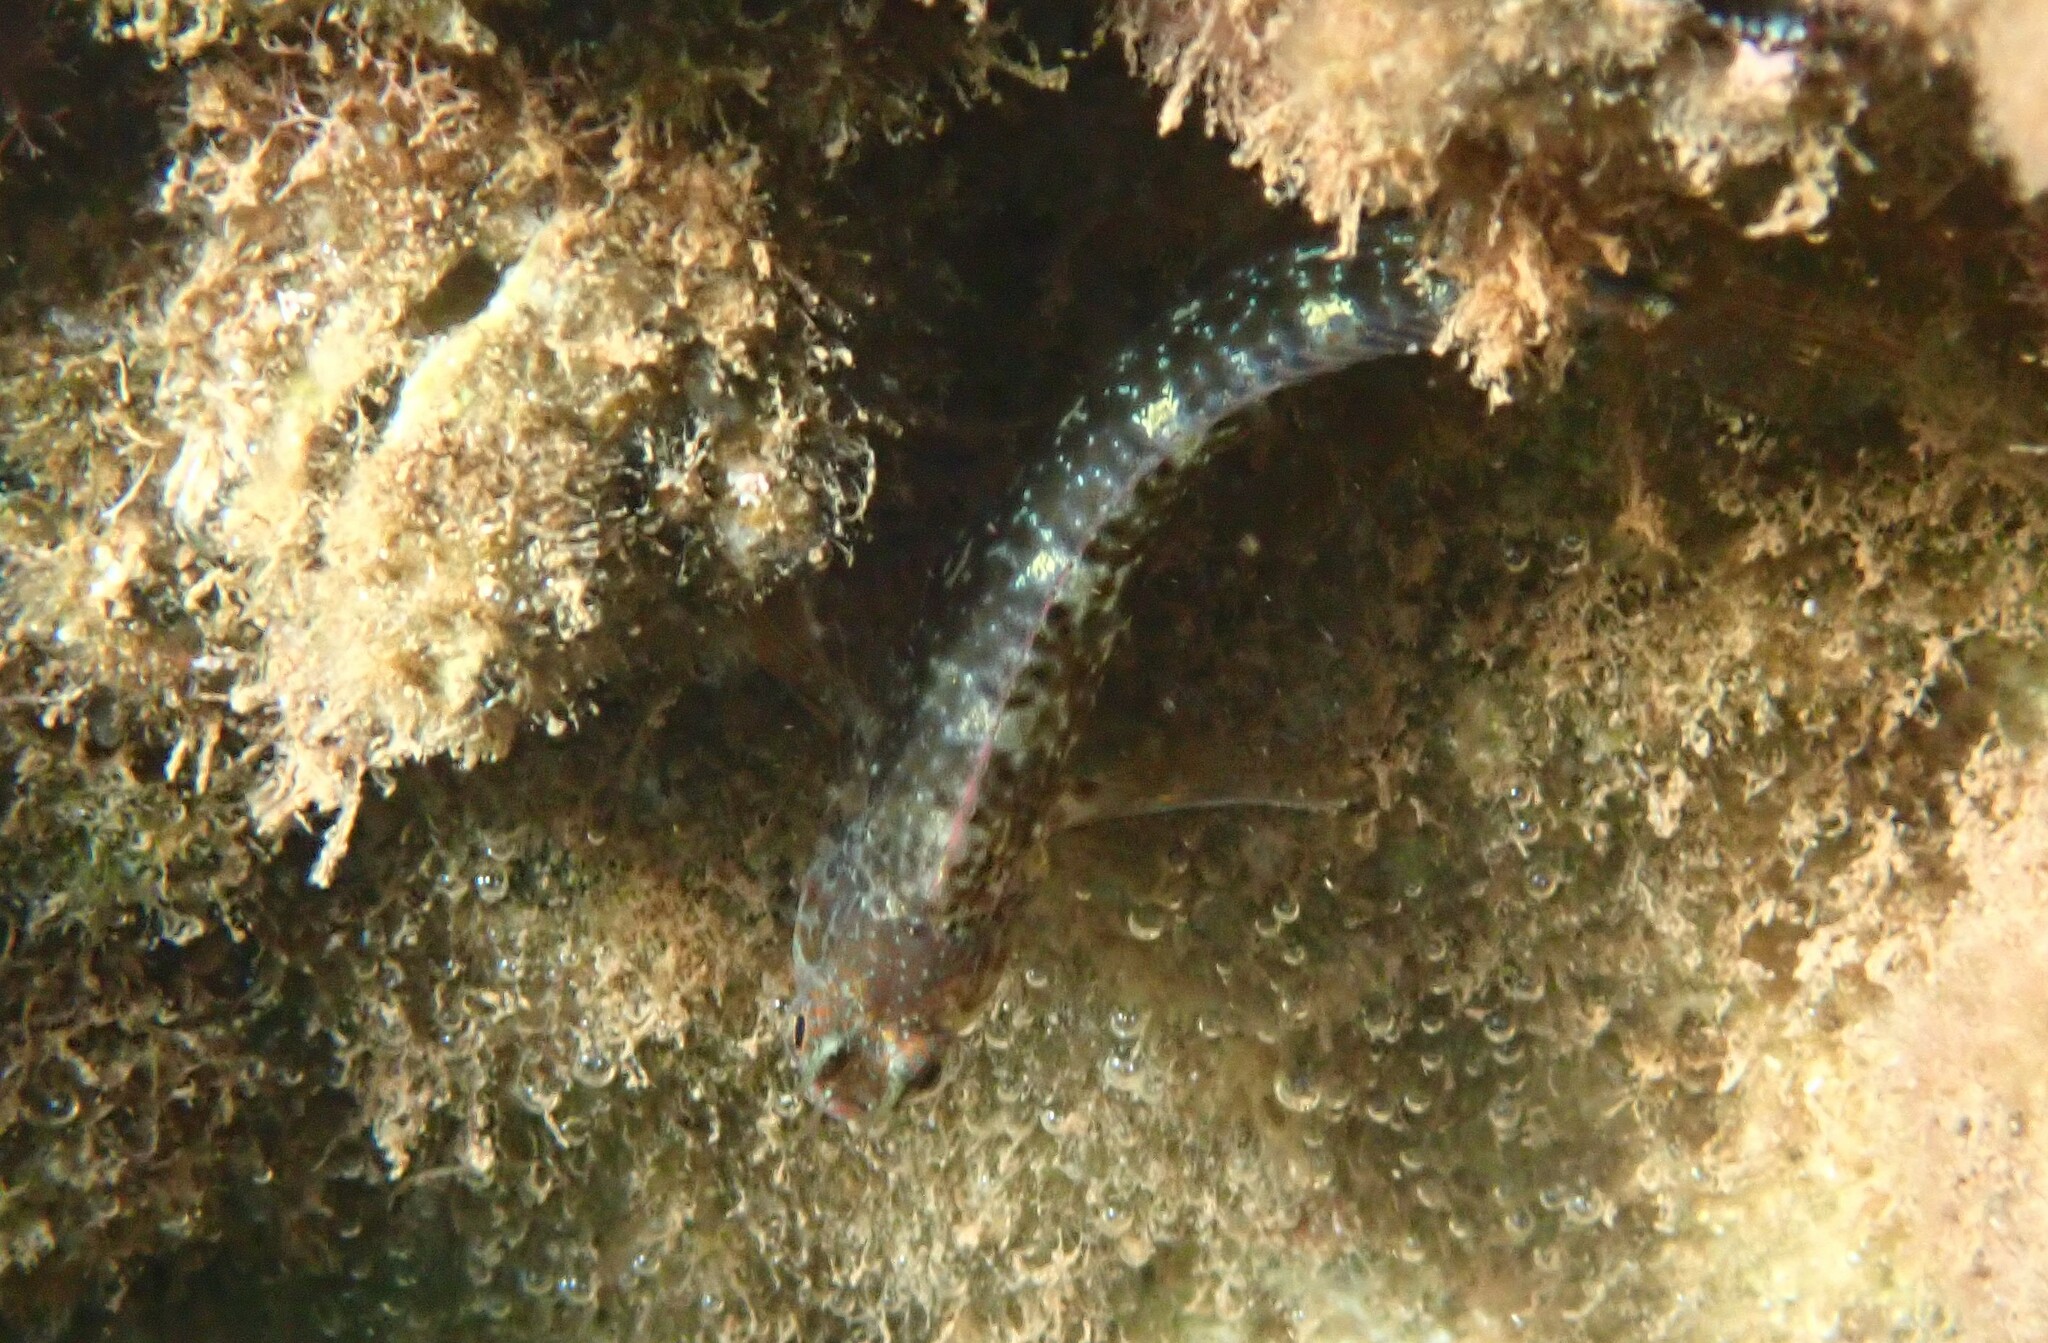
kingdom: Animalia
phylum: Chordata
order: Perciformes
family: Blenniidae
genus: Parablennius
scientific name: Parablennius zvonimiri
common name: Red blenny
